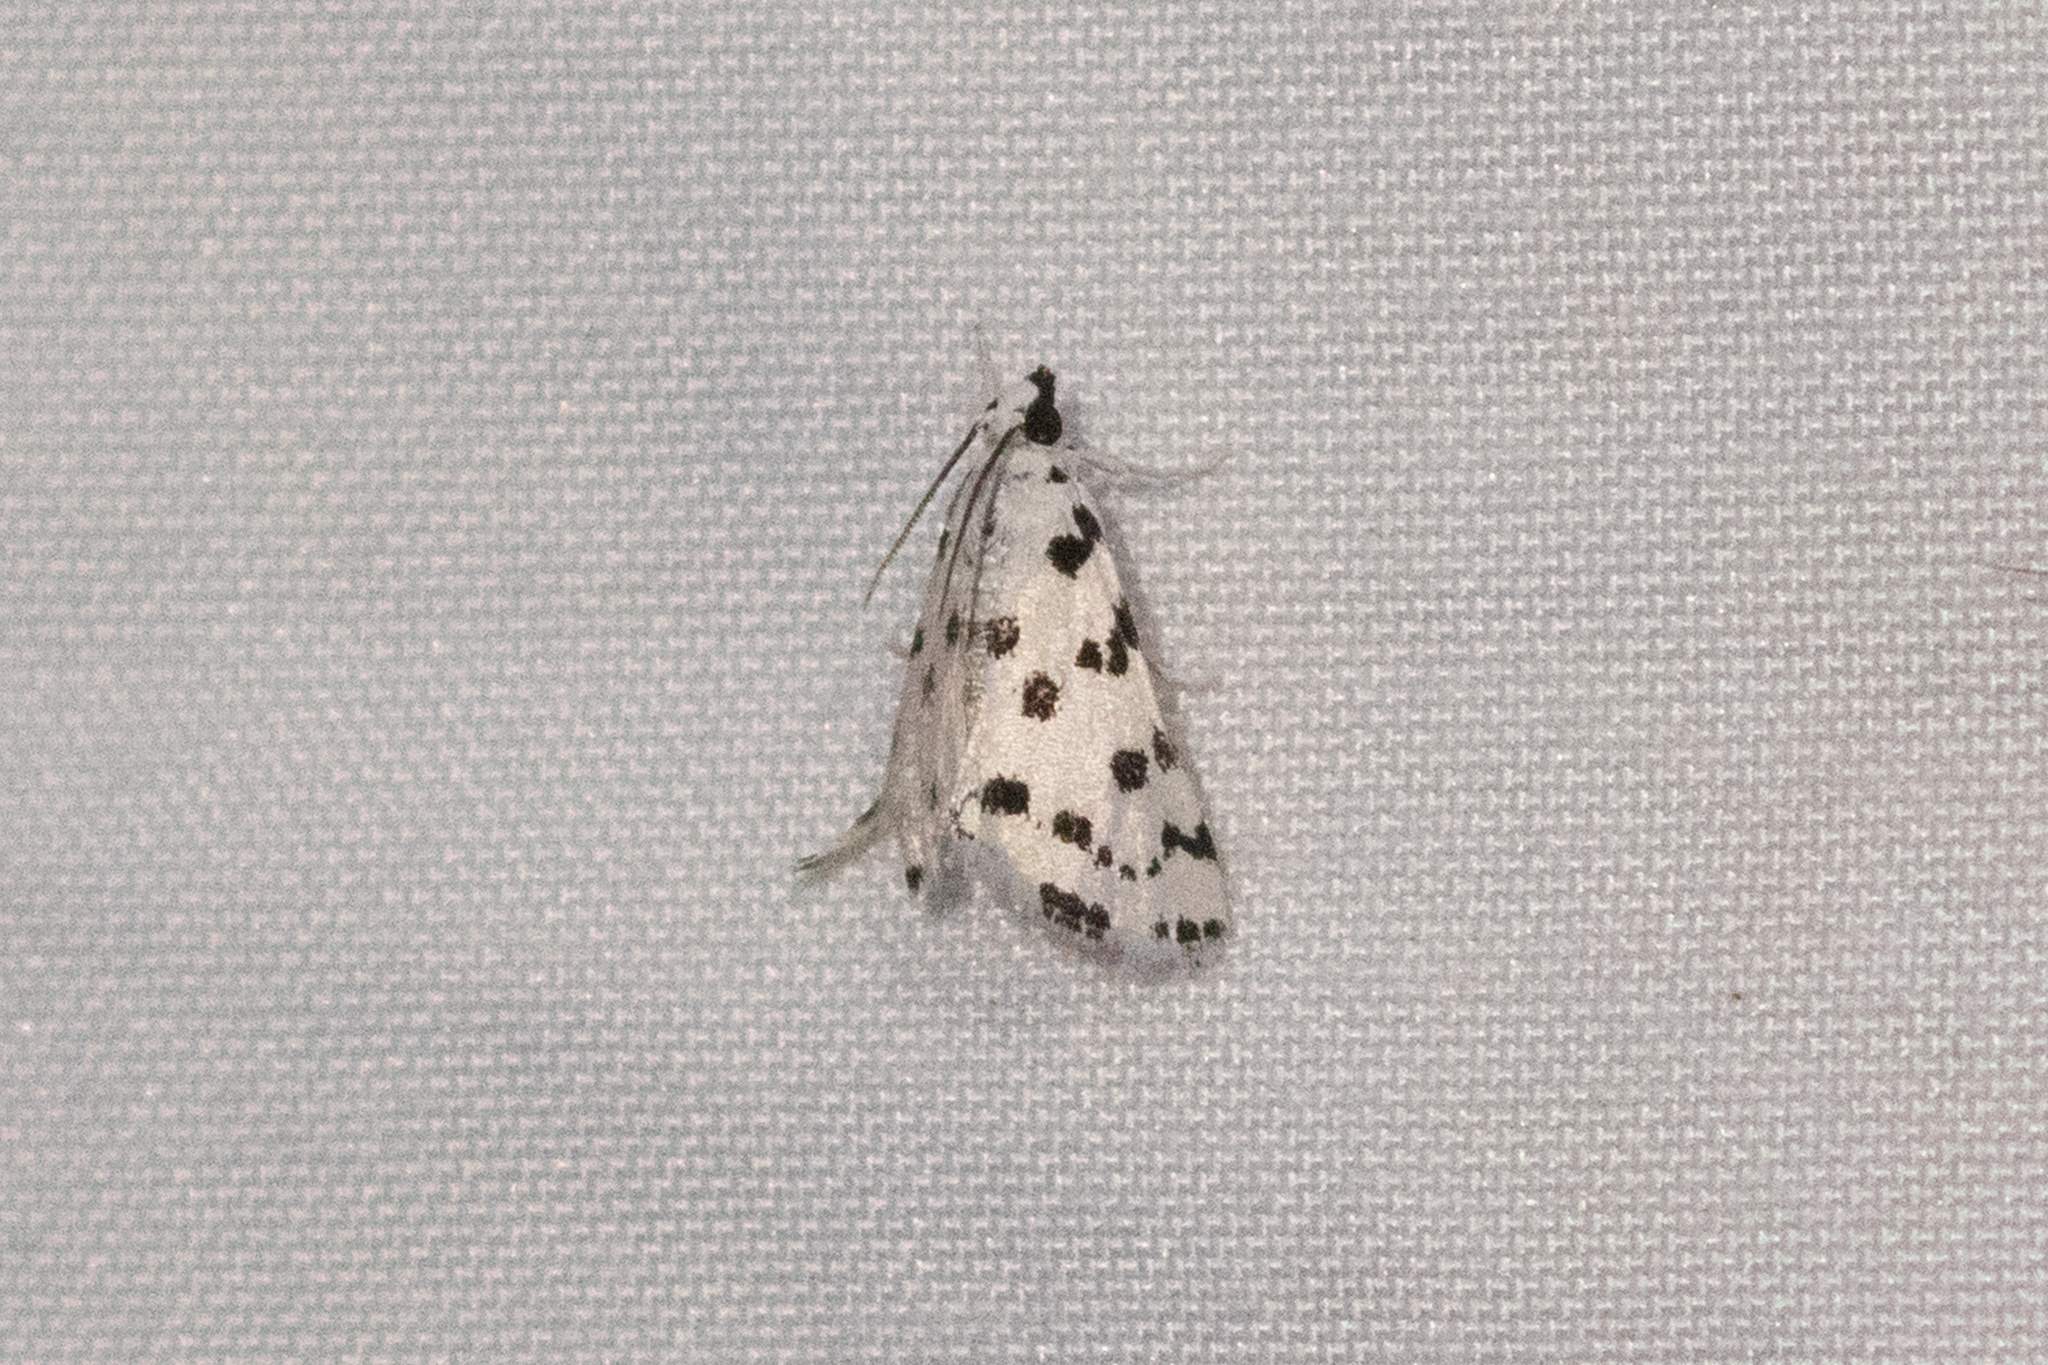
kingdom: Animalia
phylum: Arthropoda
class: Insecta
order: Lepidoptera
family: Crambidae
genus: Eustixia
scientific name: Eustixia pupula
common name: American cabbage pearl
